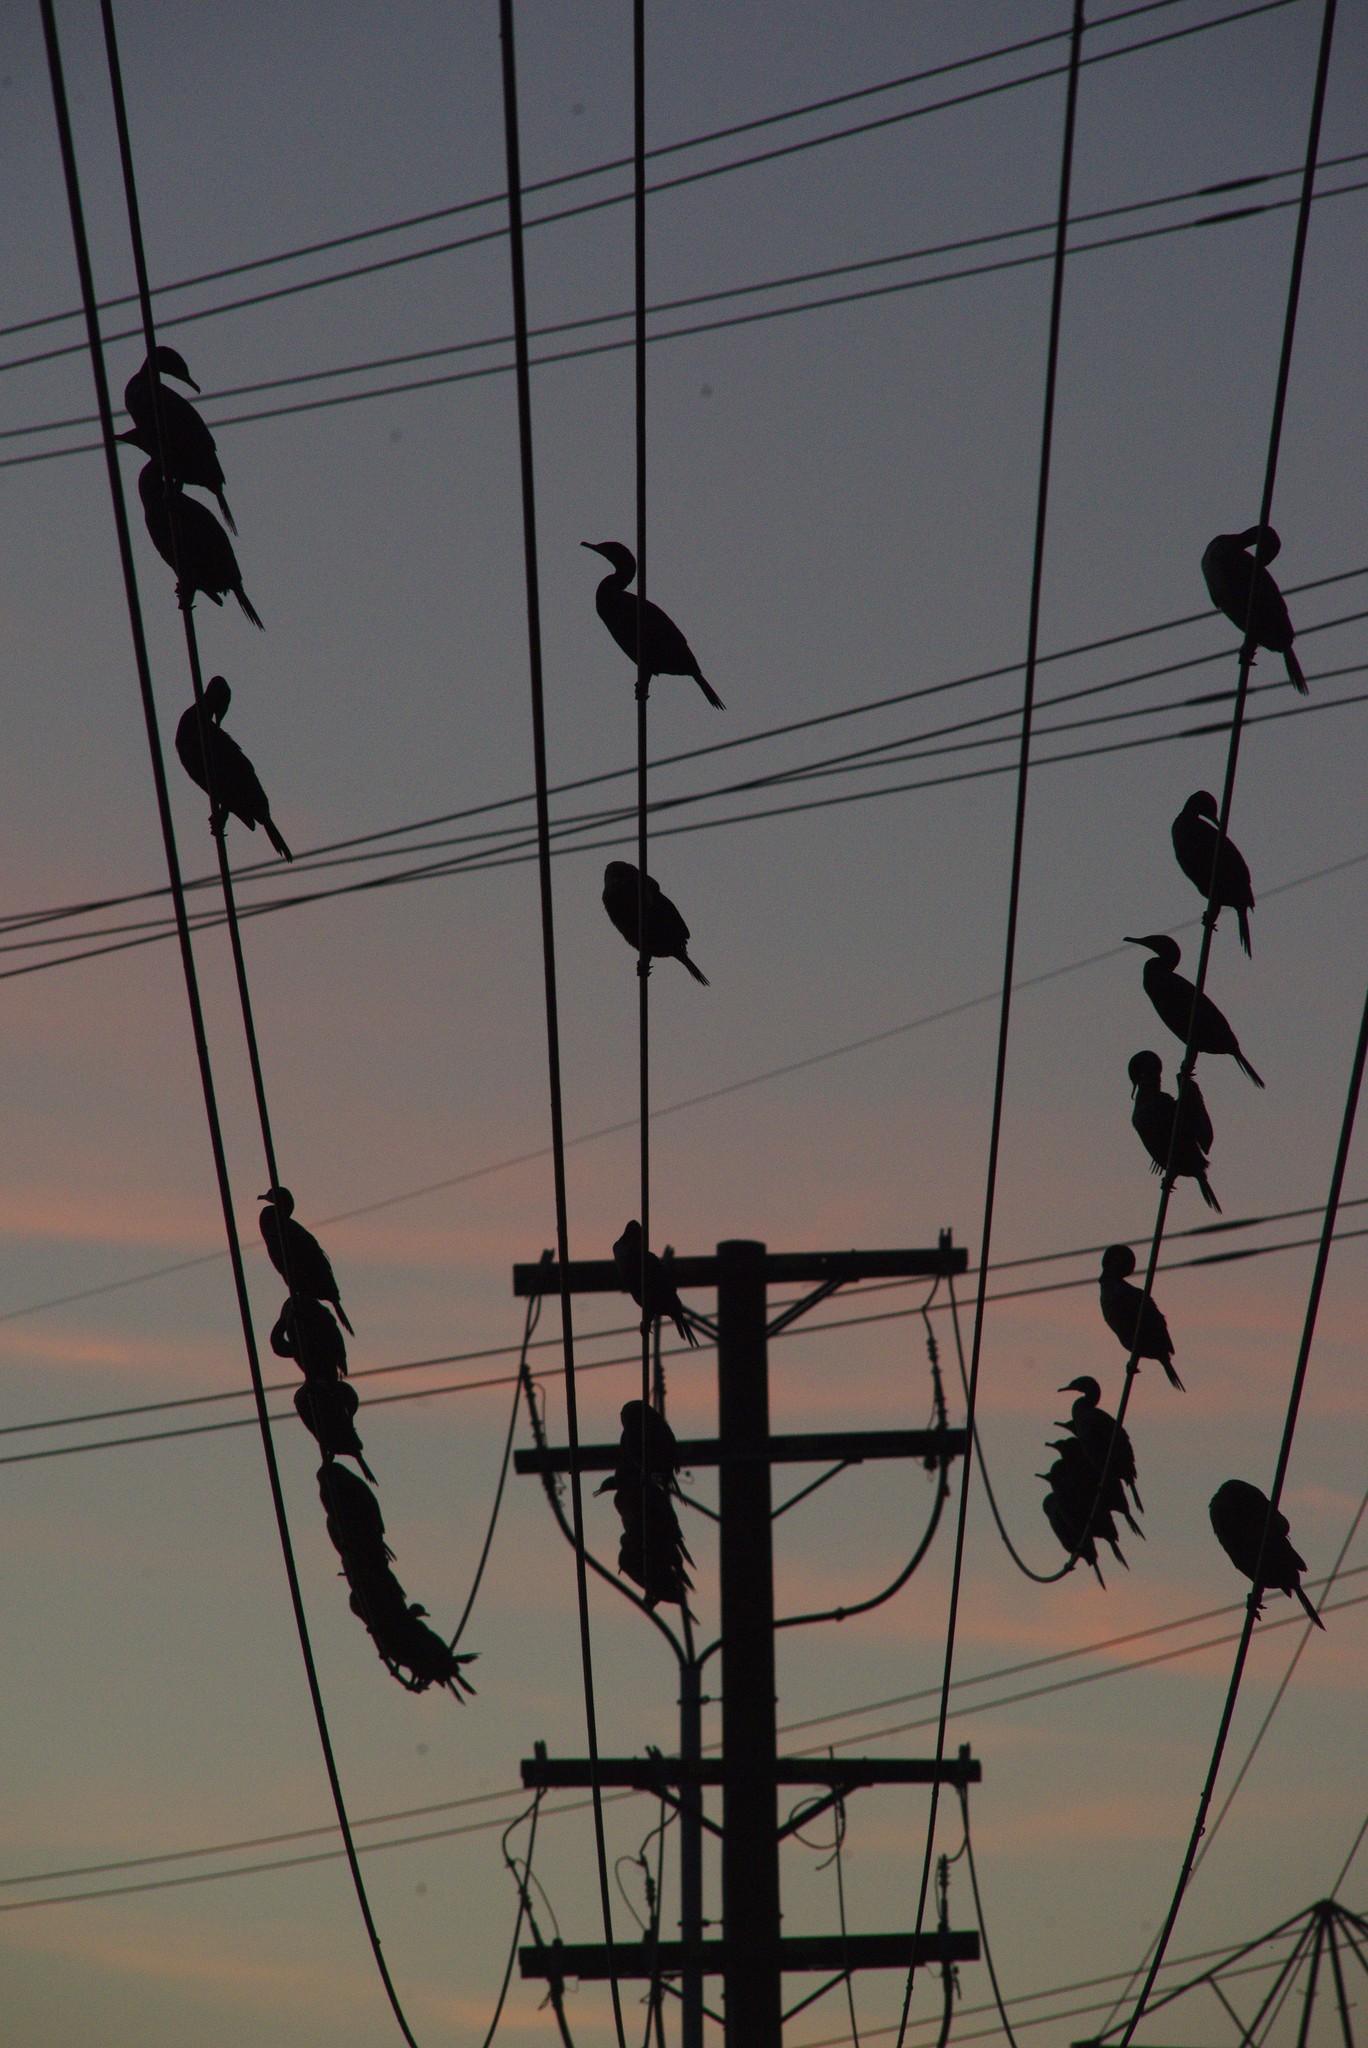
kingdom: Animalia
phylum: Chordata
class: Aves
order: Suliformes
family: Phalacrocoracidae
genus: Phalacrocorax
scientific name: Phalacrocorax auritus
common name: Double-crested cormorant
